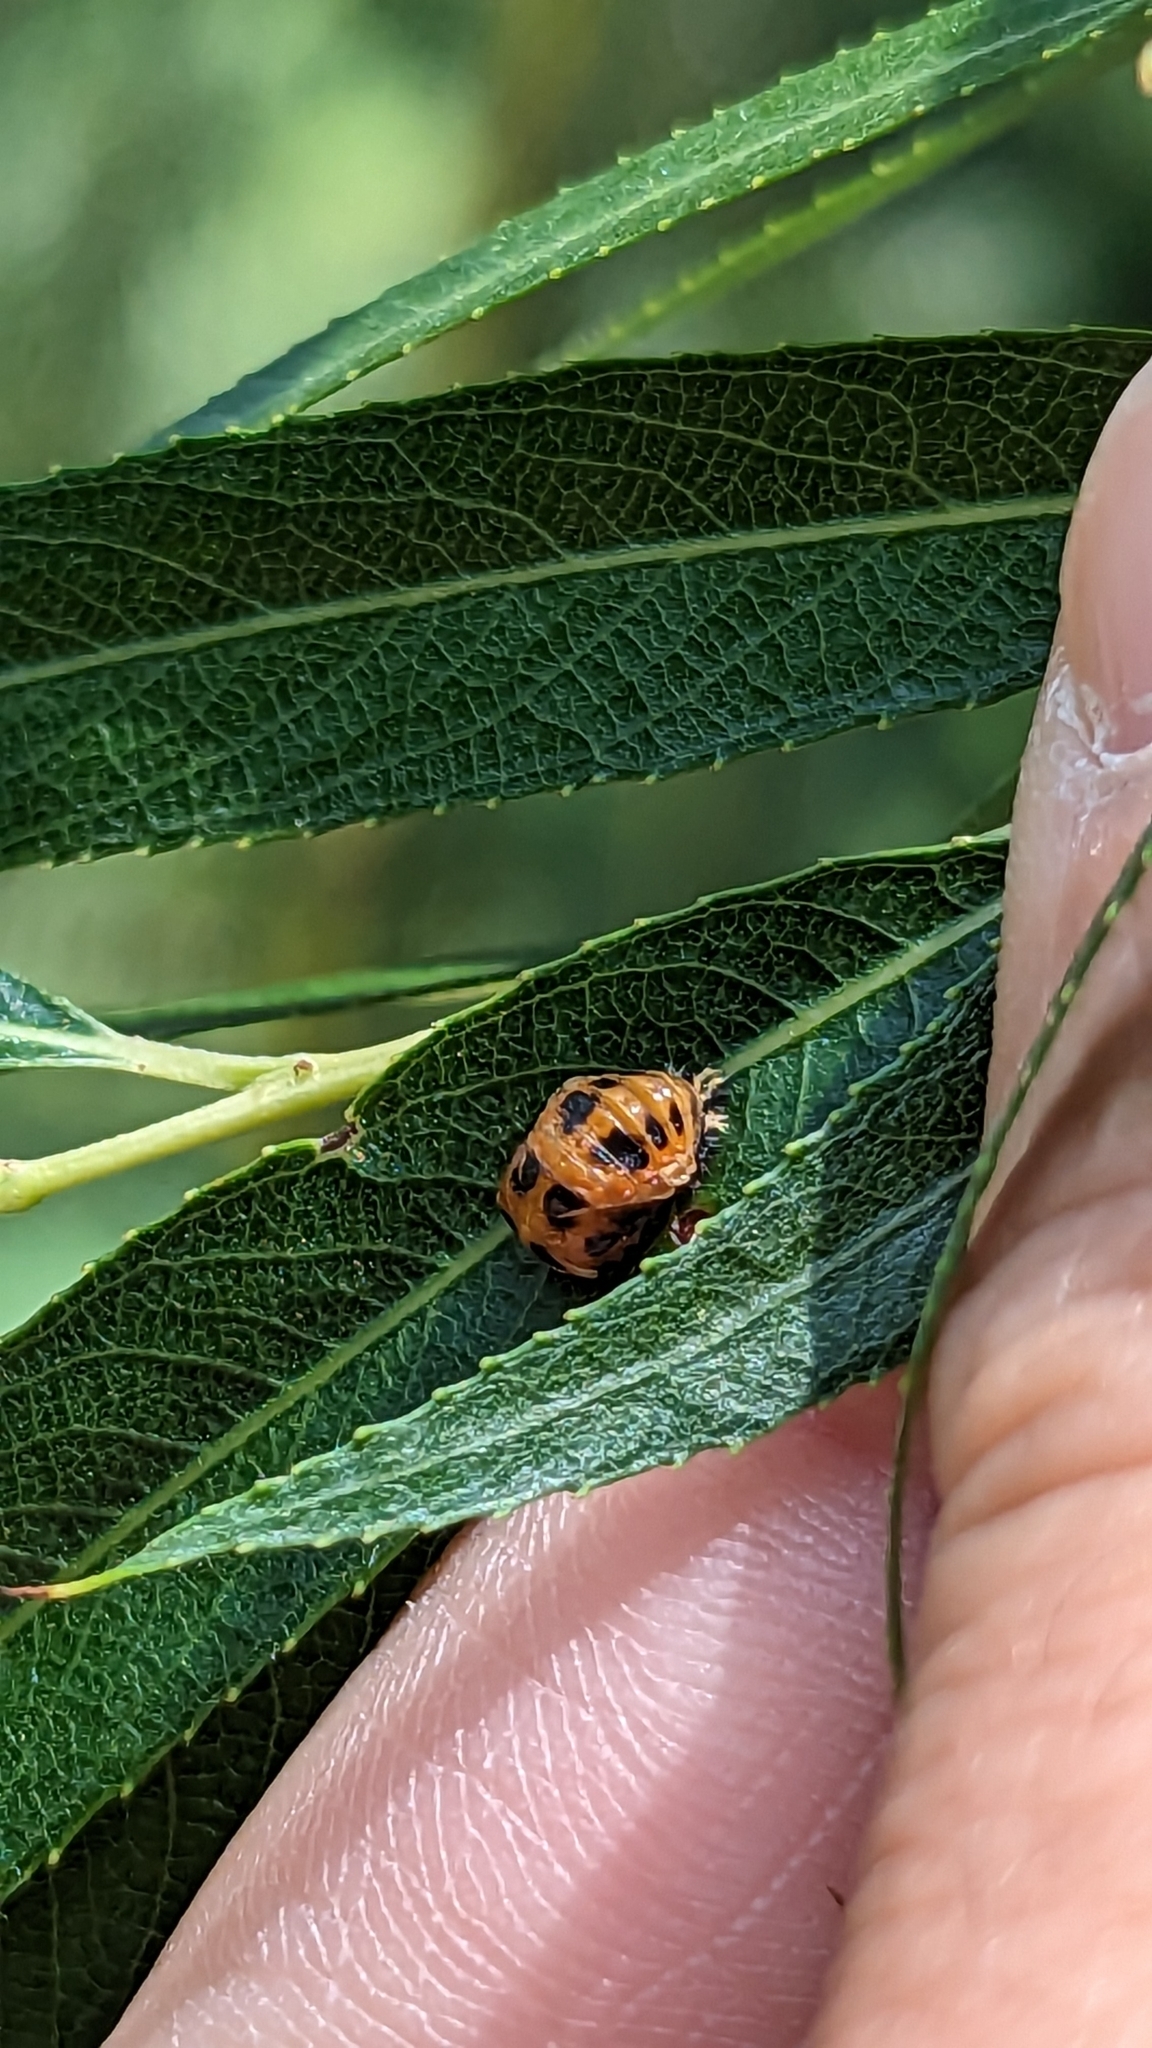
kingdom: Animalia
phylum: Arthropoda
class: Insecta
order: Coleoptera
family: Coccinellidae
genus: Harmonia
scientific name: Harmonia axyridis
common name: Harlequin ladybird
